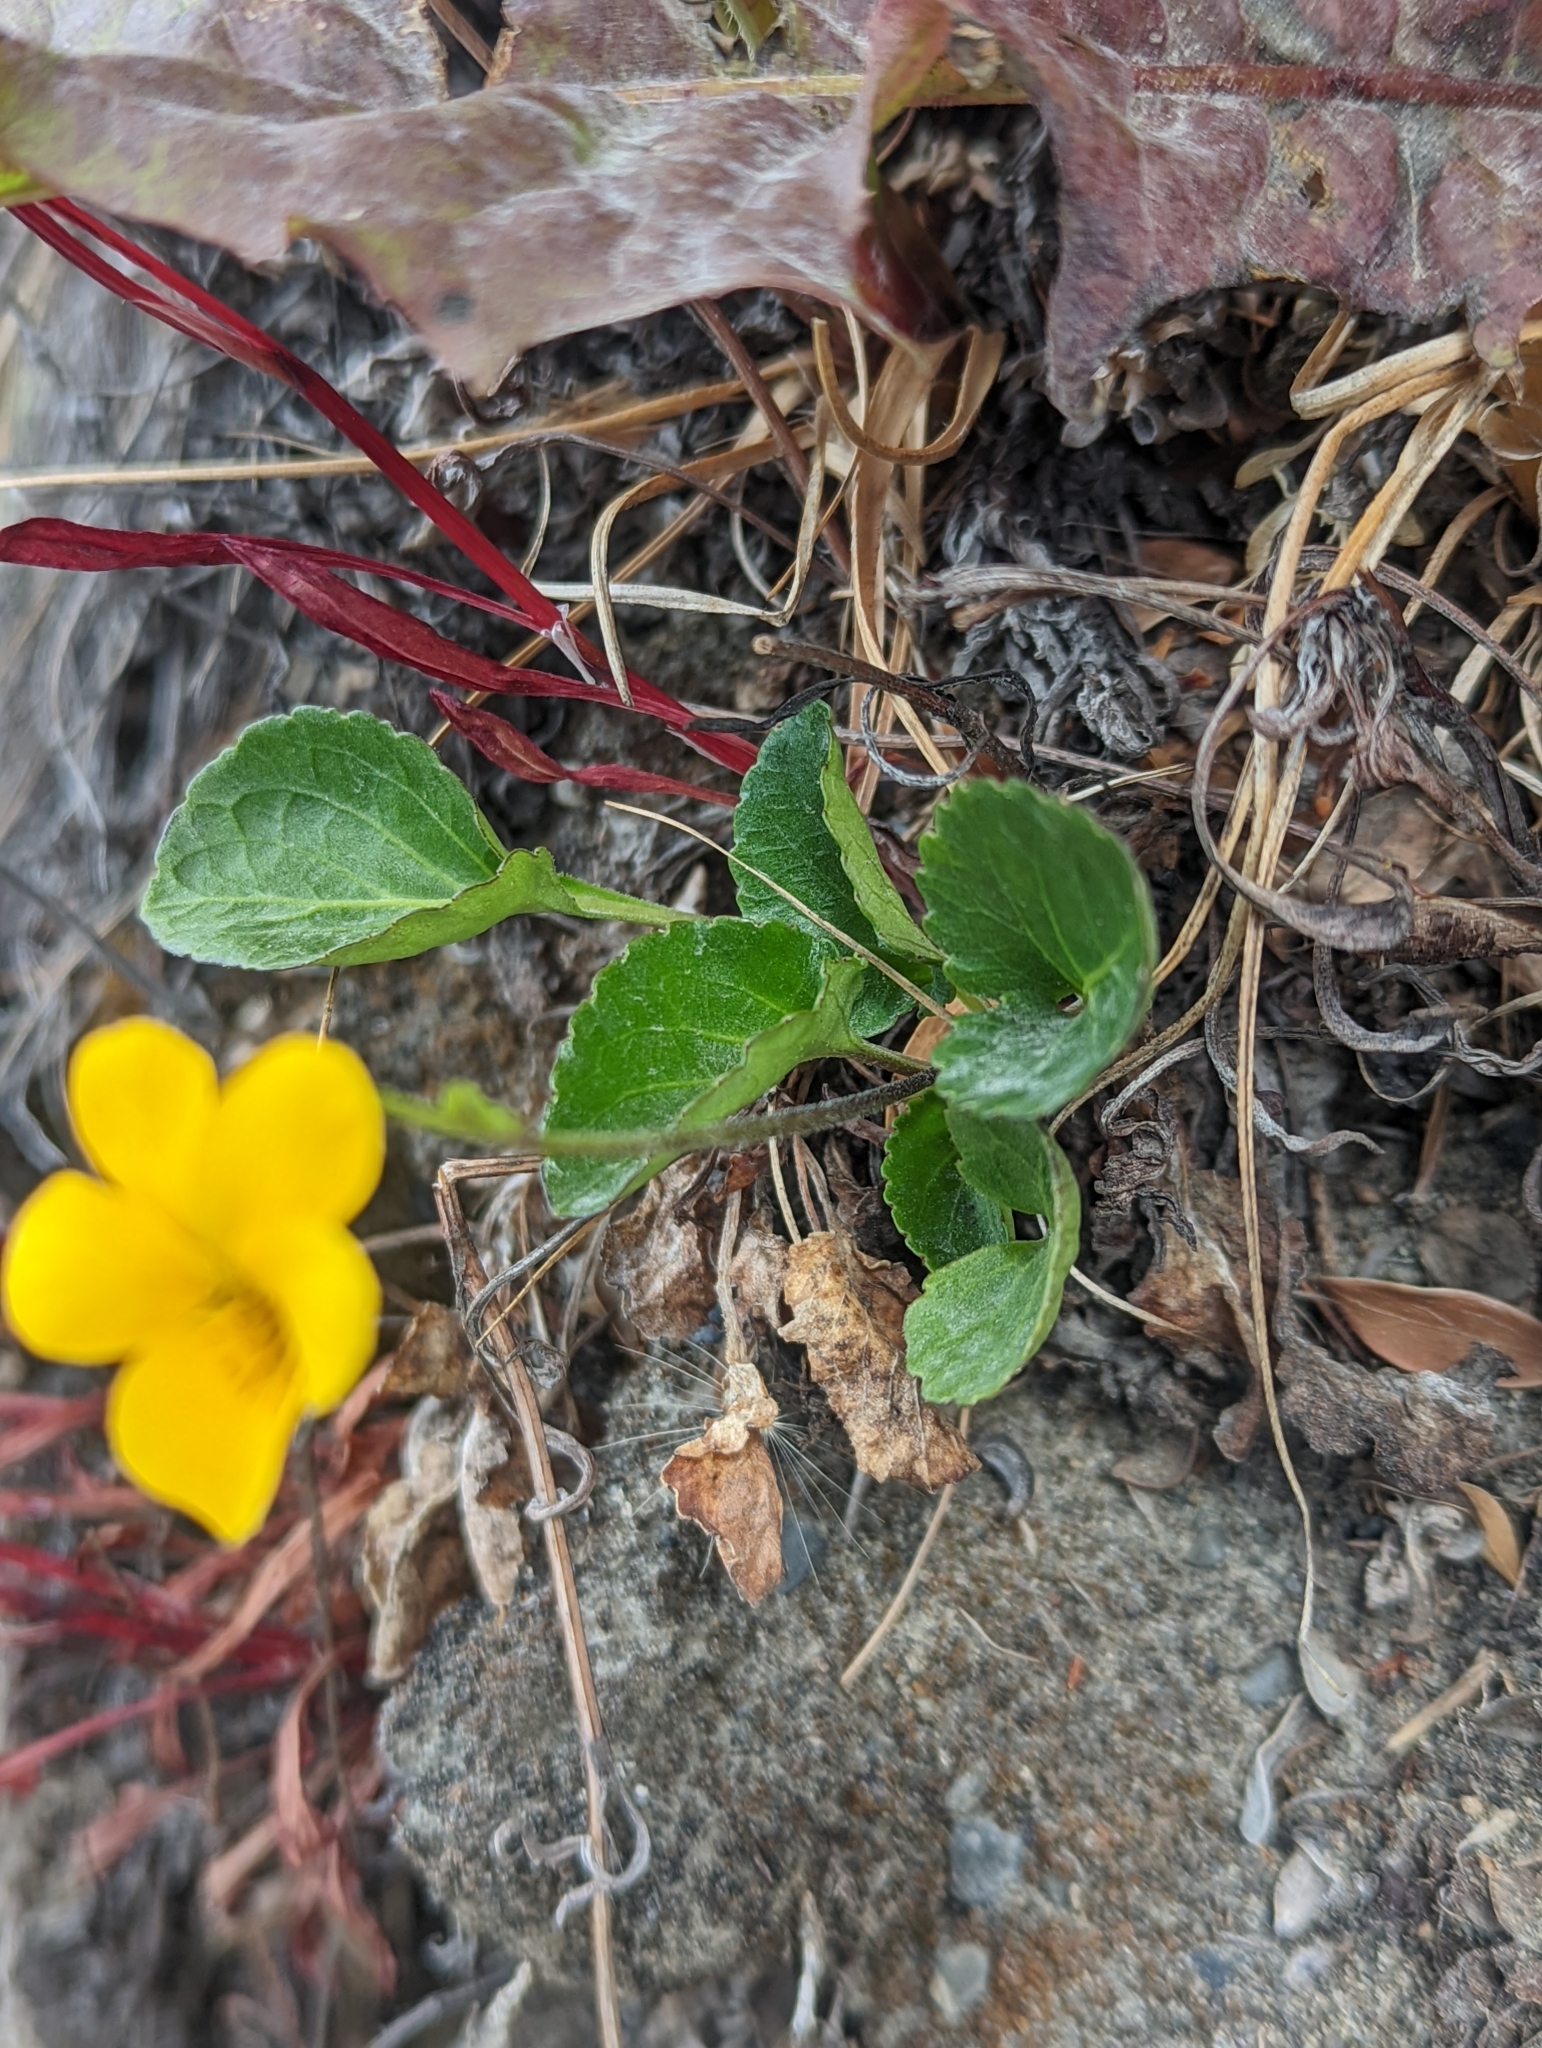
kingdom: Plantae
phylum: Tracheophyta
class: Magnoliopsida
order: Malpighiales
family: Violaceae
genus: Viola
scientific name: Viola reichei
